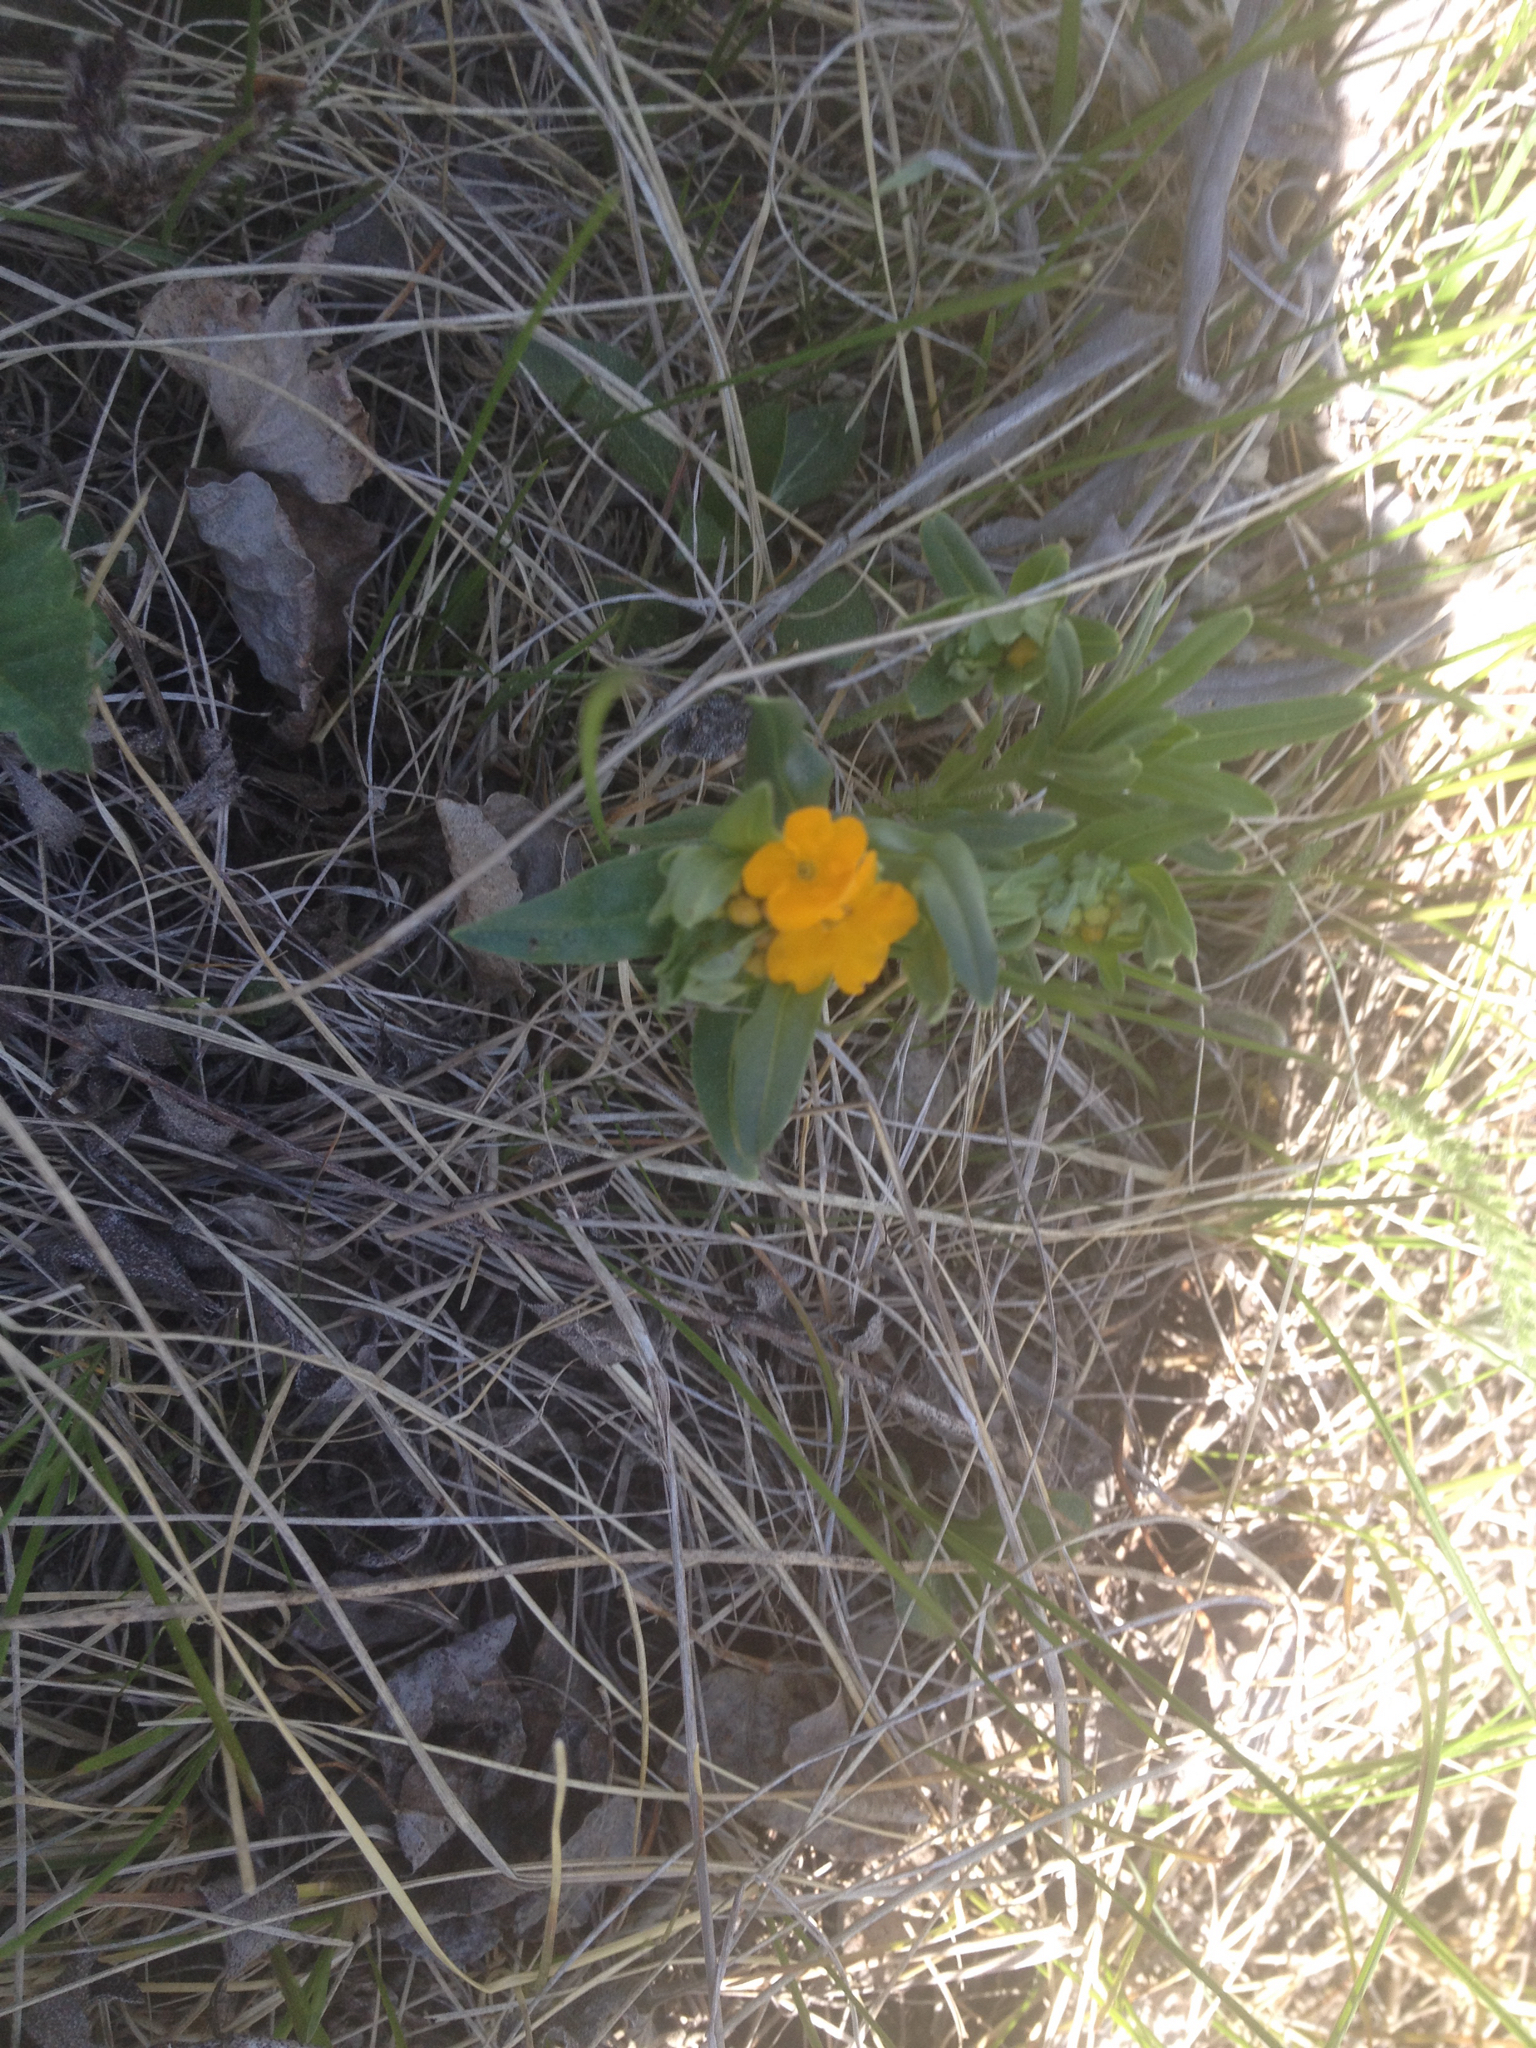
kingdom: Plantae
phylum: Tracheophyta
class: Magnoliopsida
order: Boraginales
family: Boraginaceae
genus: Lithospermum
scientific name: Lithospermum canescens
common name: Hoary puccoon
